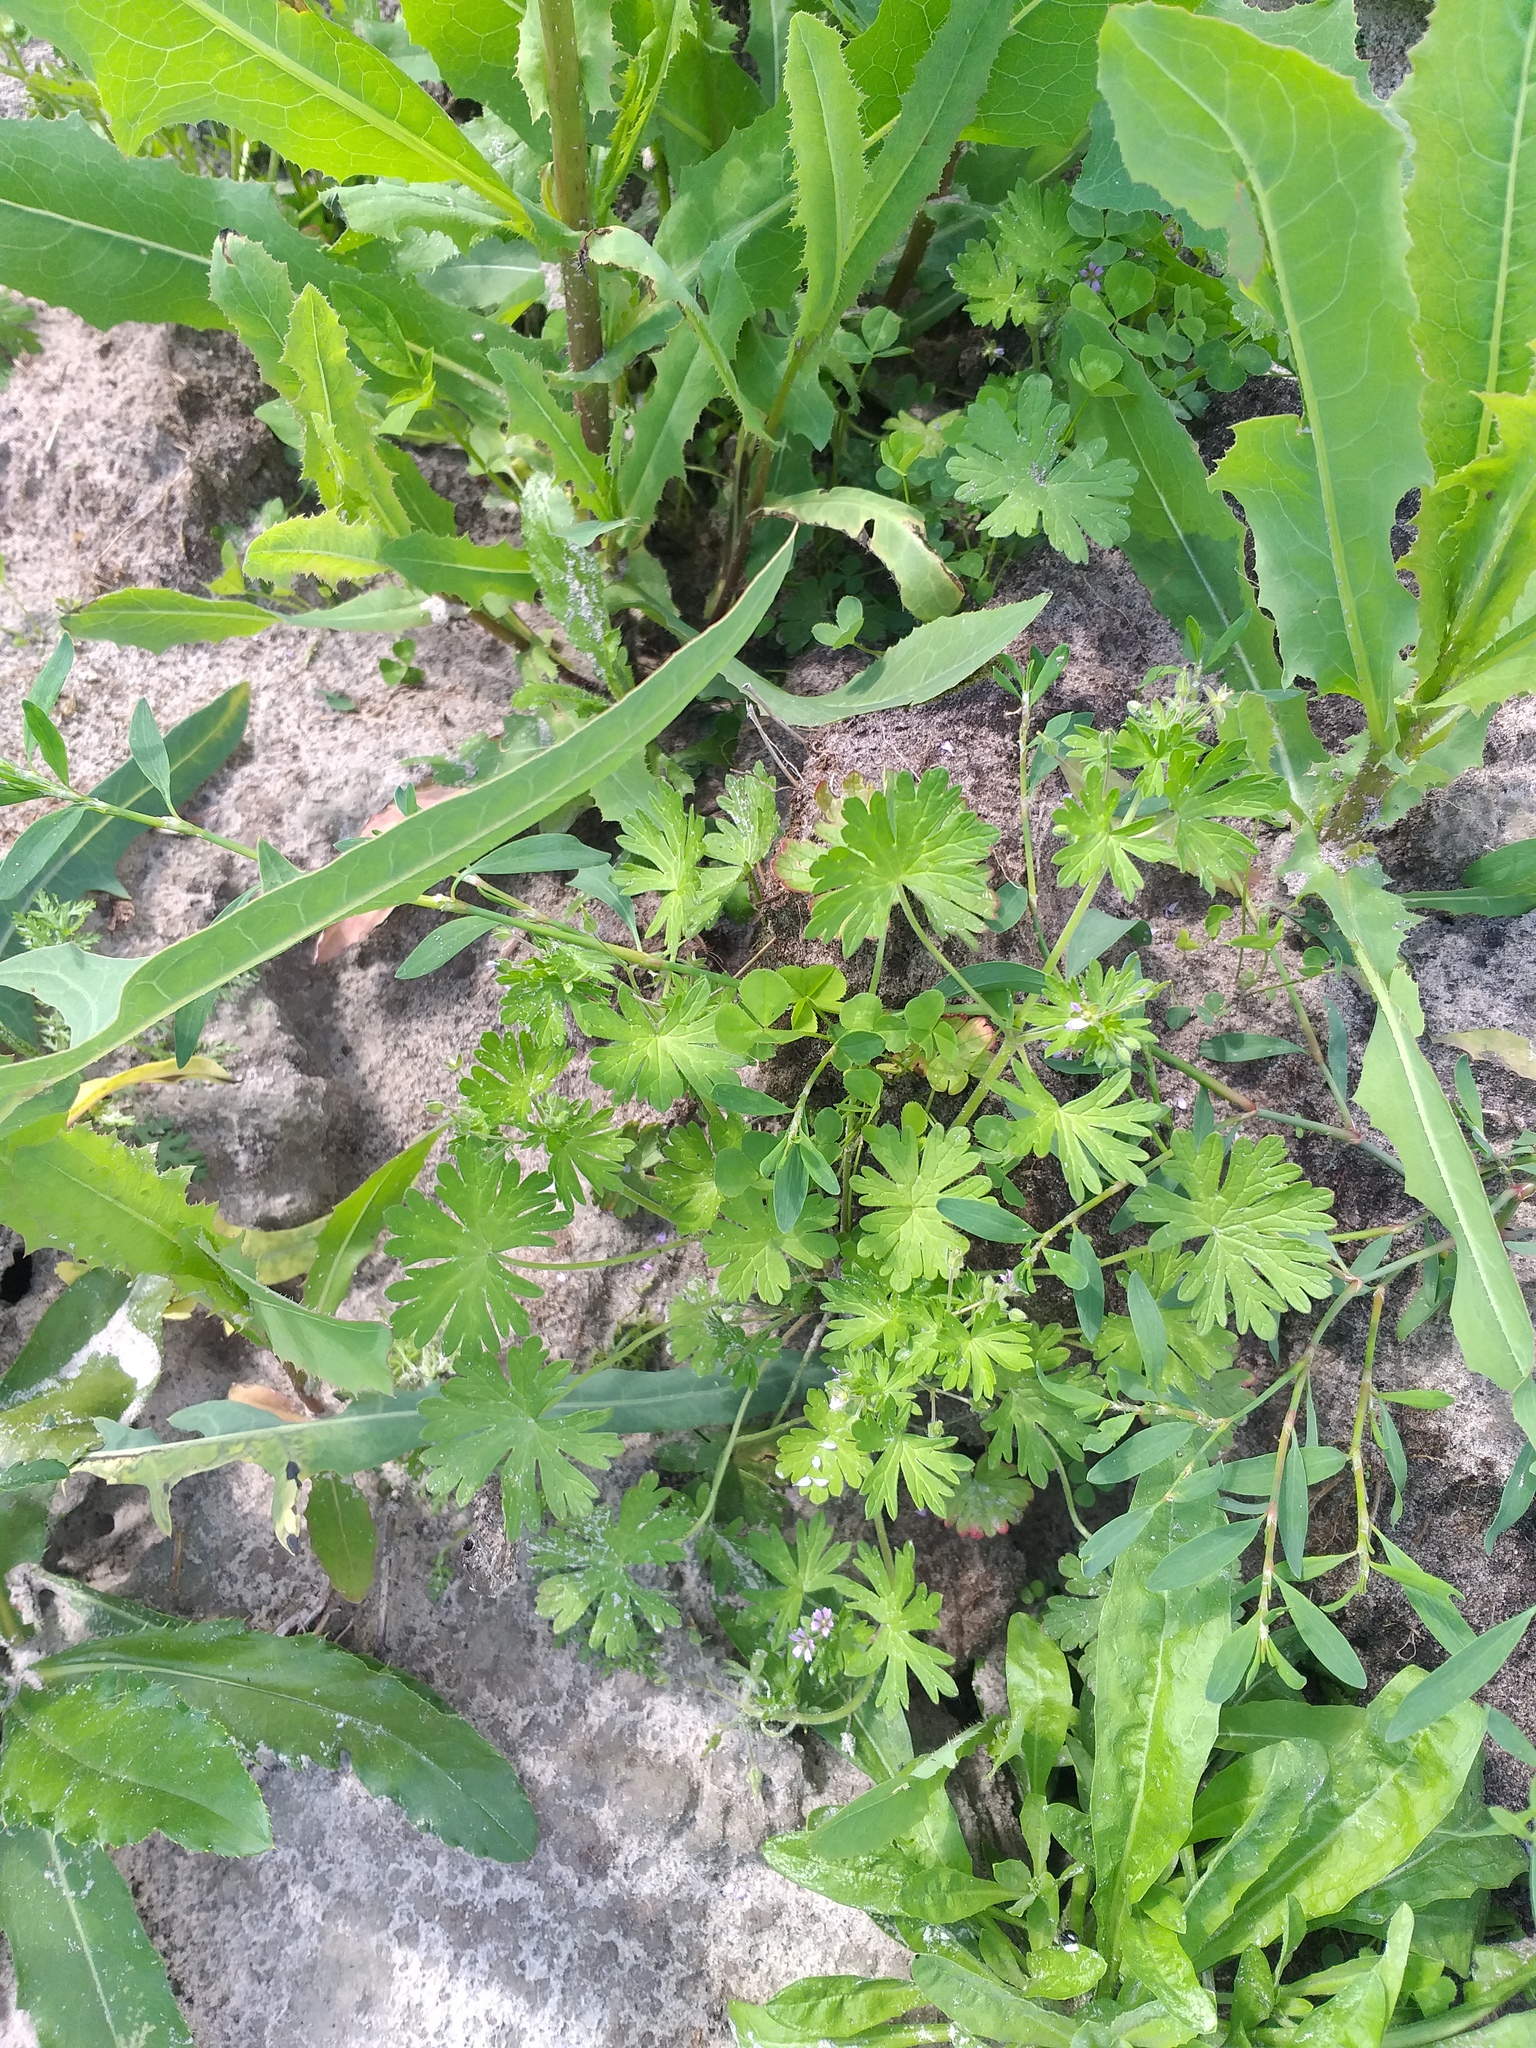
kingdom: Plantae
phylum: Tracheophyta
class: Magnoliopsida
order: Geraniales
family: Geraniaceae
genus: Geranium
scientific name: Geranium pusillum
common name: Small geranium
